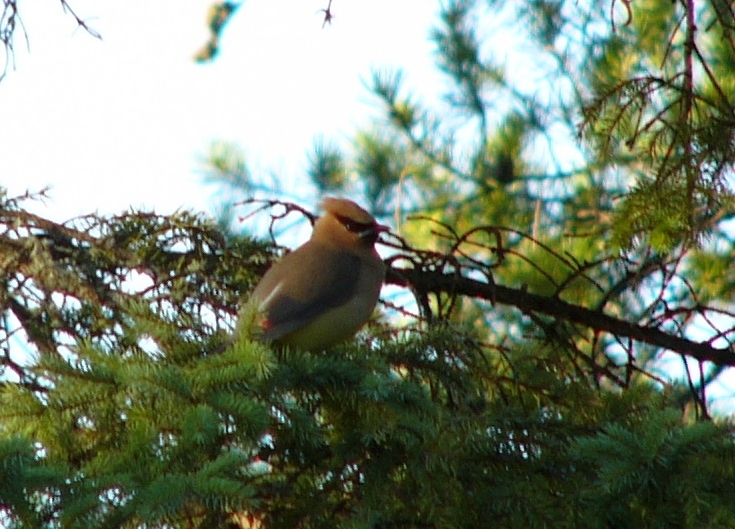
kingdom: Animalia
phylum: Chordata
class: Aves
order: Passeriformes
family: Bombycillidae
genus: Bombycilla
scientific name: Bombycilla cedrorum
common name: Cedar waxwing
